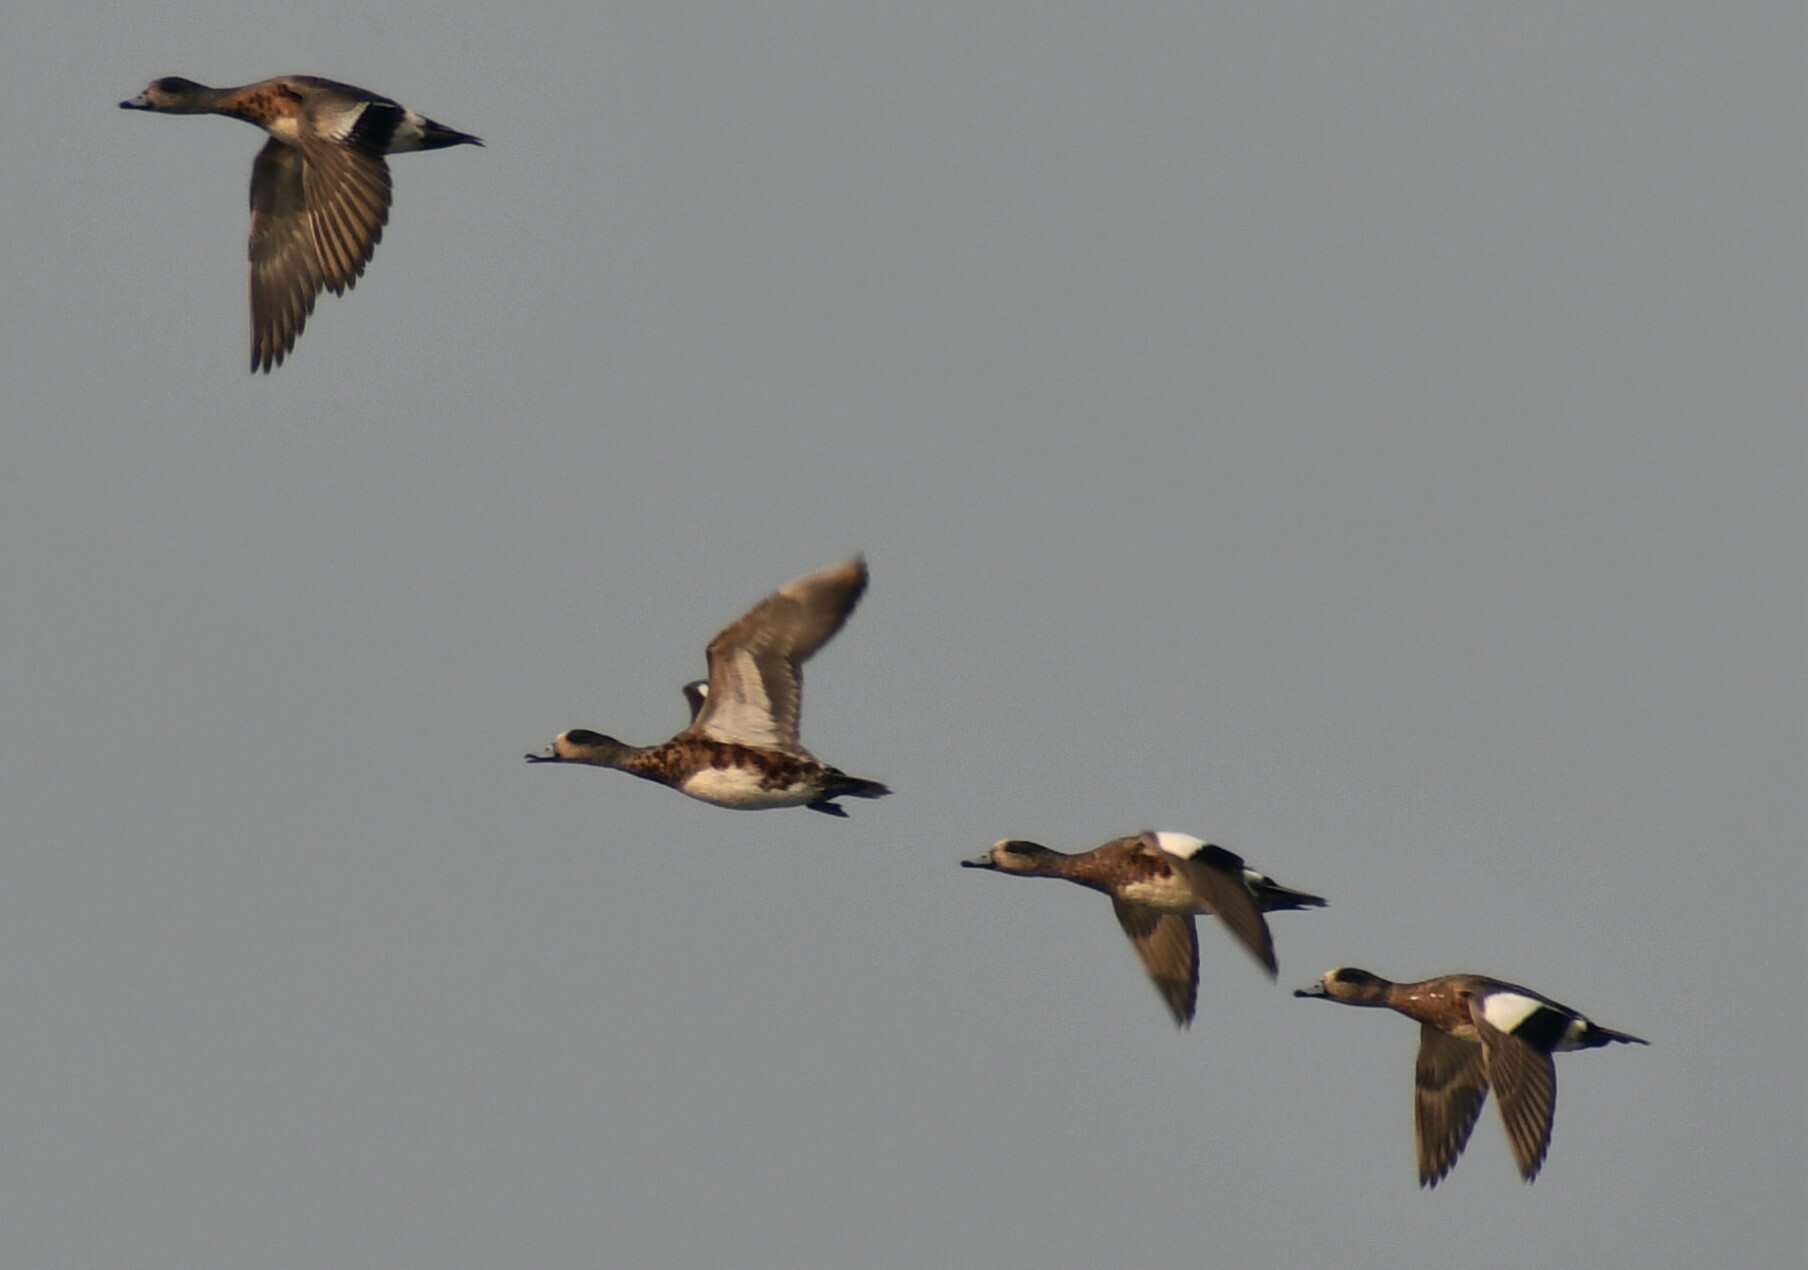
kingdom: Animalia
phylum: Chordata
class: Aves
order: Anseriformes
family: Anatidae
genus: Mareca
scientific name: Mareca americana
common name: American wigeon
